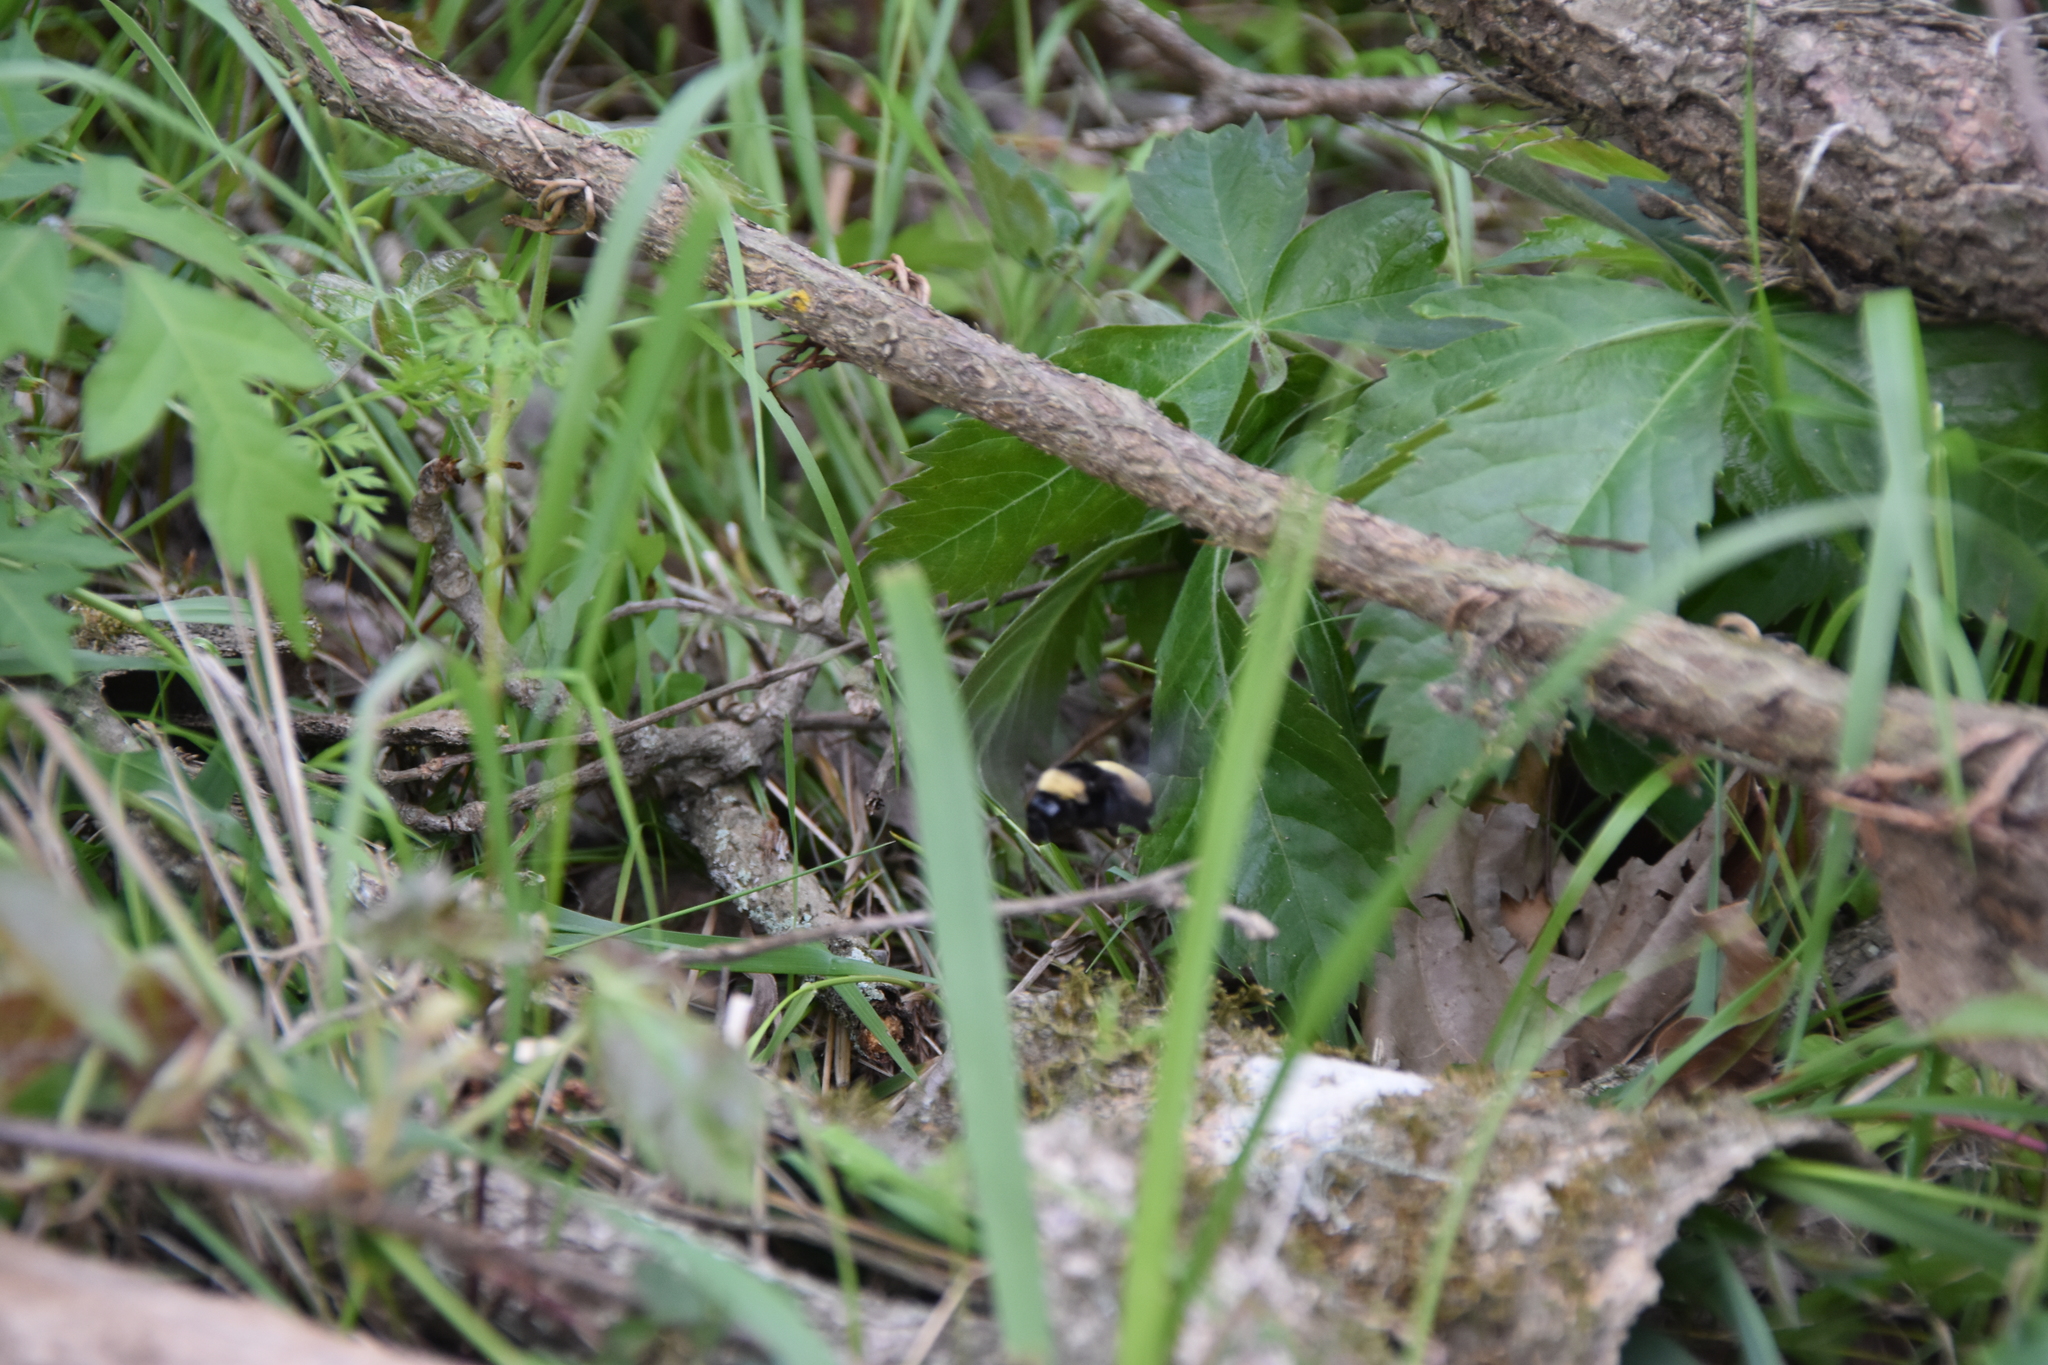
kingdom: Animalia
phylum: Arthropoda
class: Insecta
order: Hymenoptera
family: Apidae
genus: Bombus
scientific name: Bombus pensylvanicus
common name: Bumble bee
